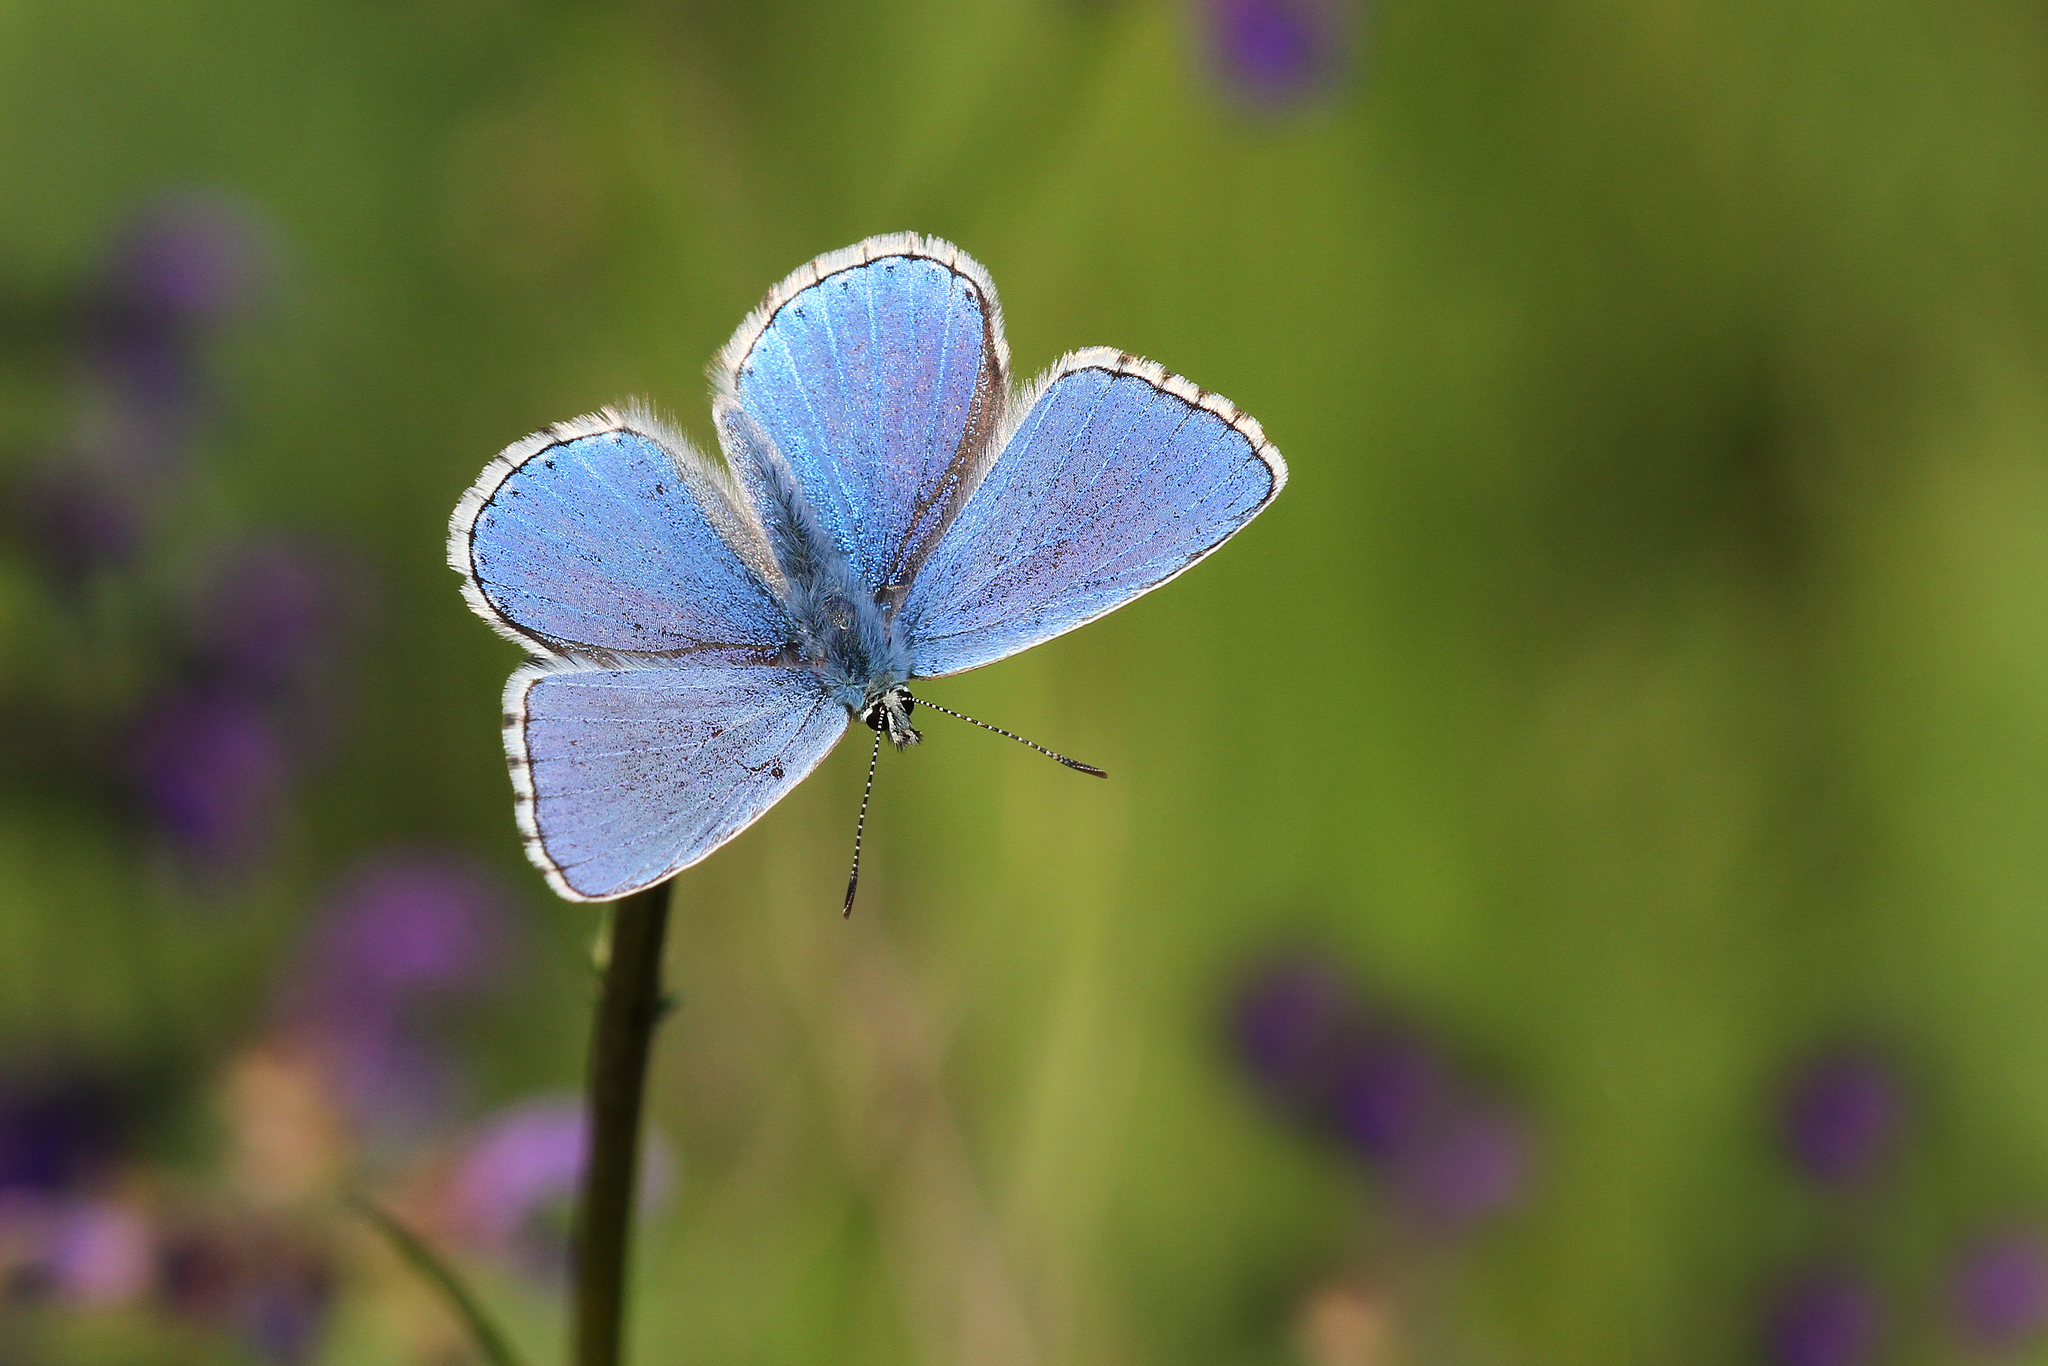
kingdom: Animalia
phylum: Arthropoda
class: Insecta
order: Lepidoptera
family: Lycaenidae
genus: Lysandra
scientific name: Lysandra bellargus
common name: Adonis blue
